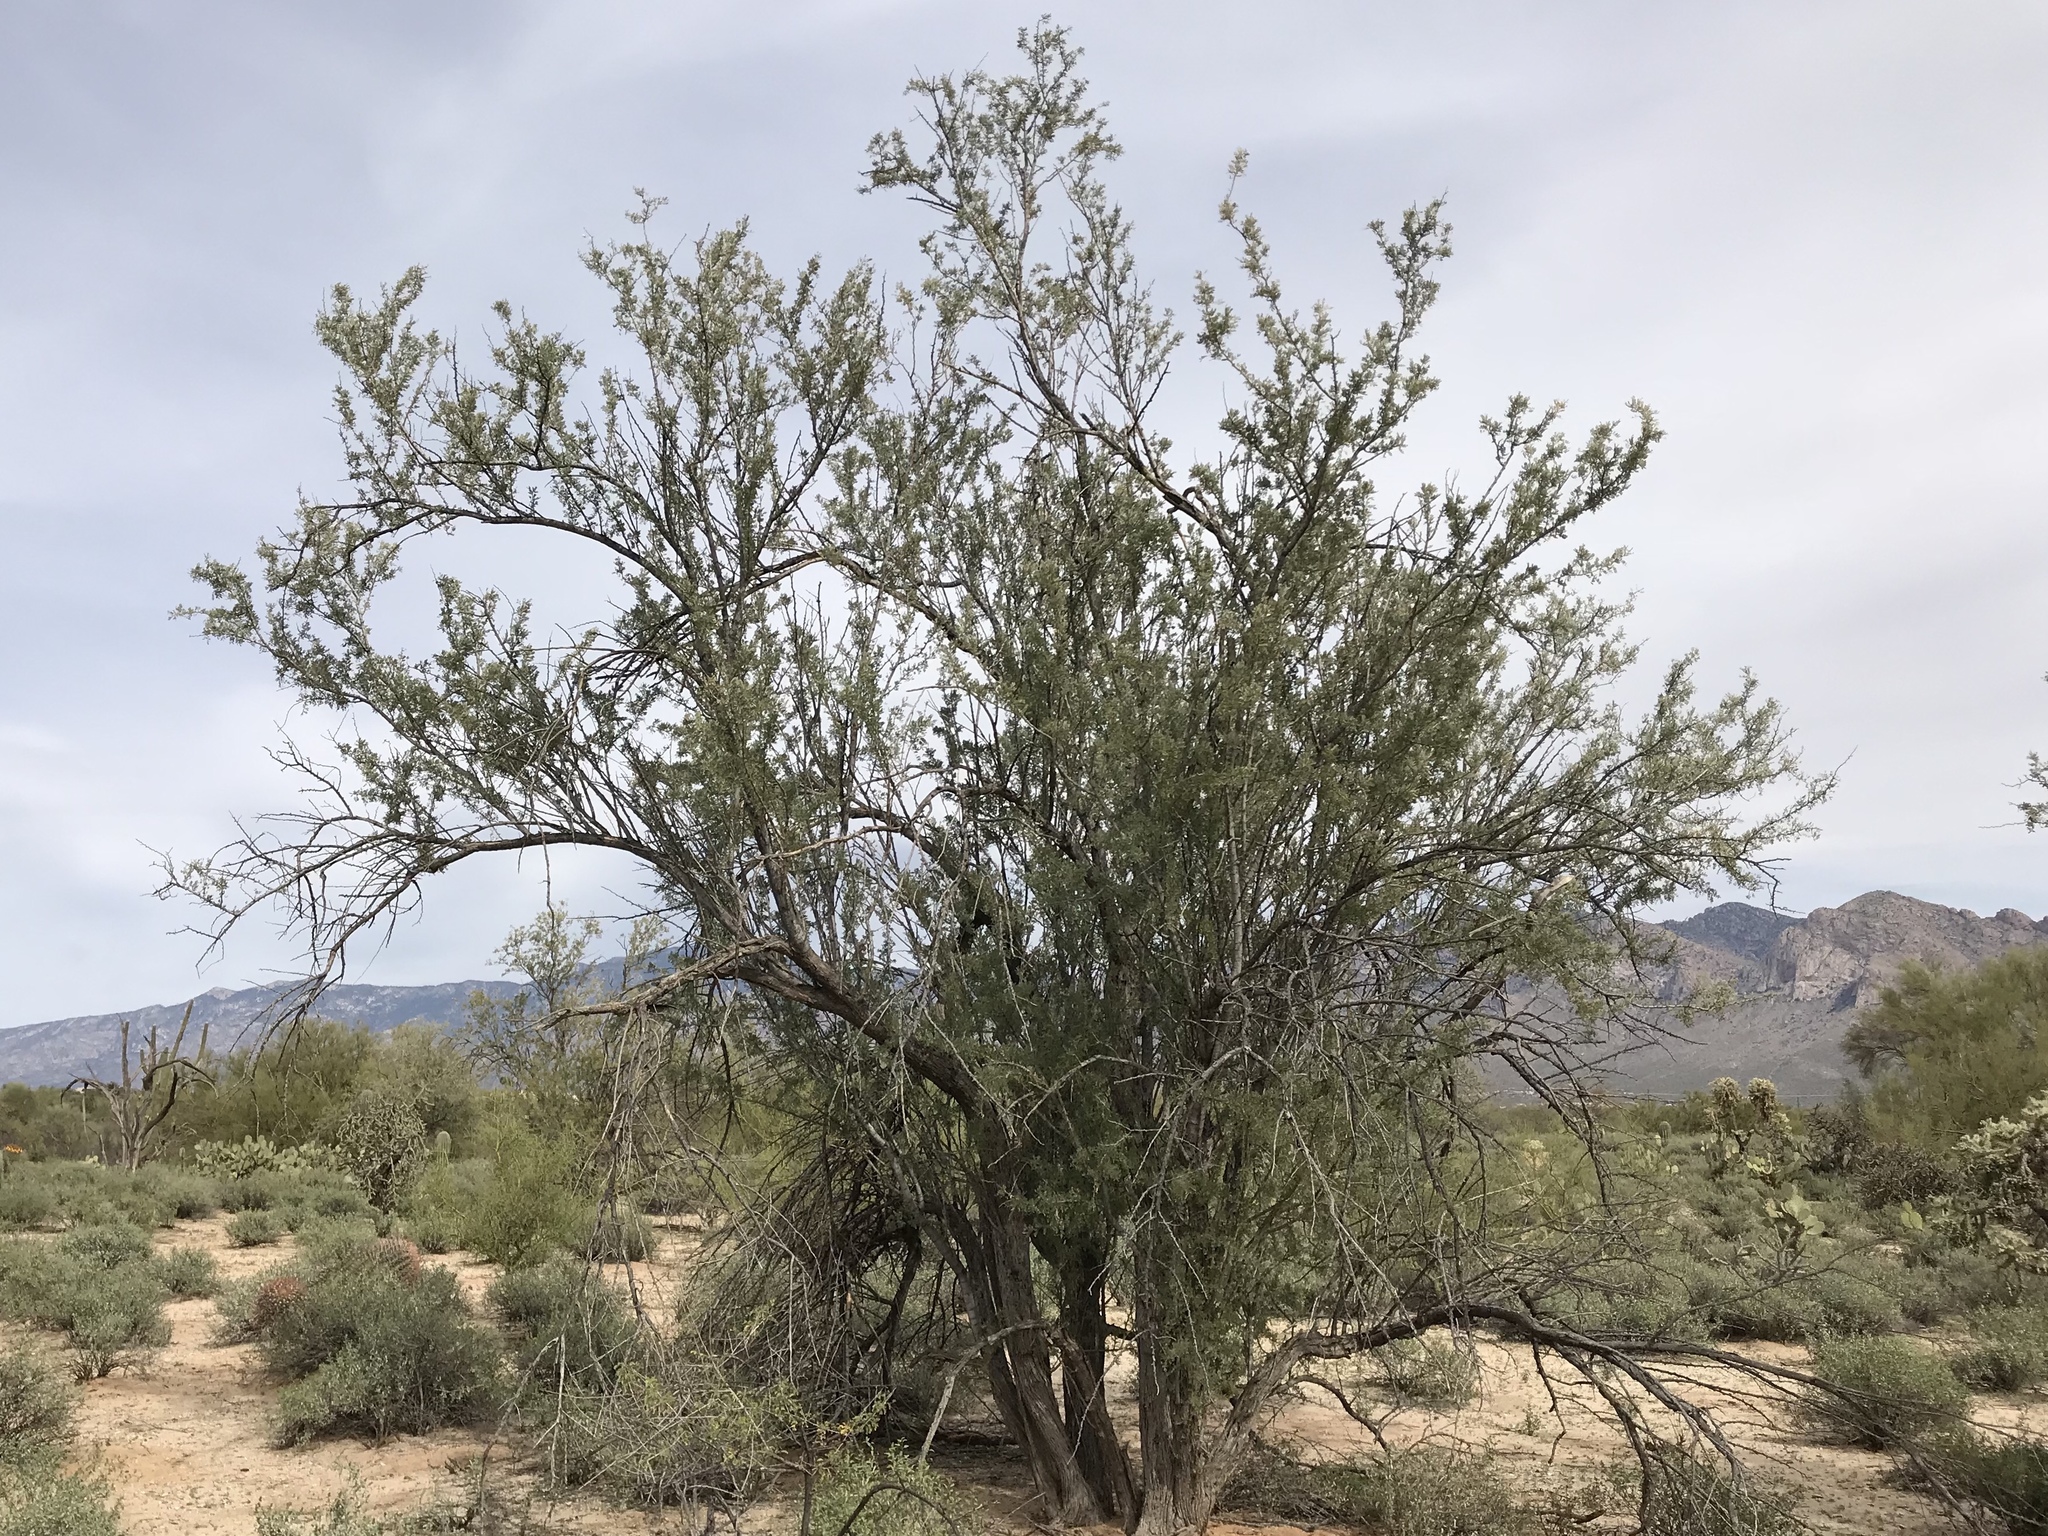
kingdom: Plantae
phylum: Tracheophyta
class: Magnoliopsida
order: Fabales
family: Fabaceae
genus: Olneya
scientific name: Olneya tesota
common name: Desert ironwood
